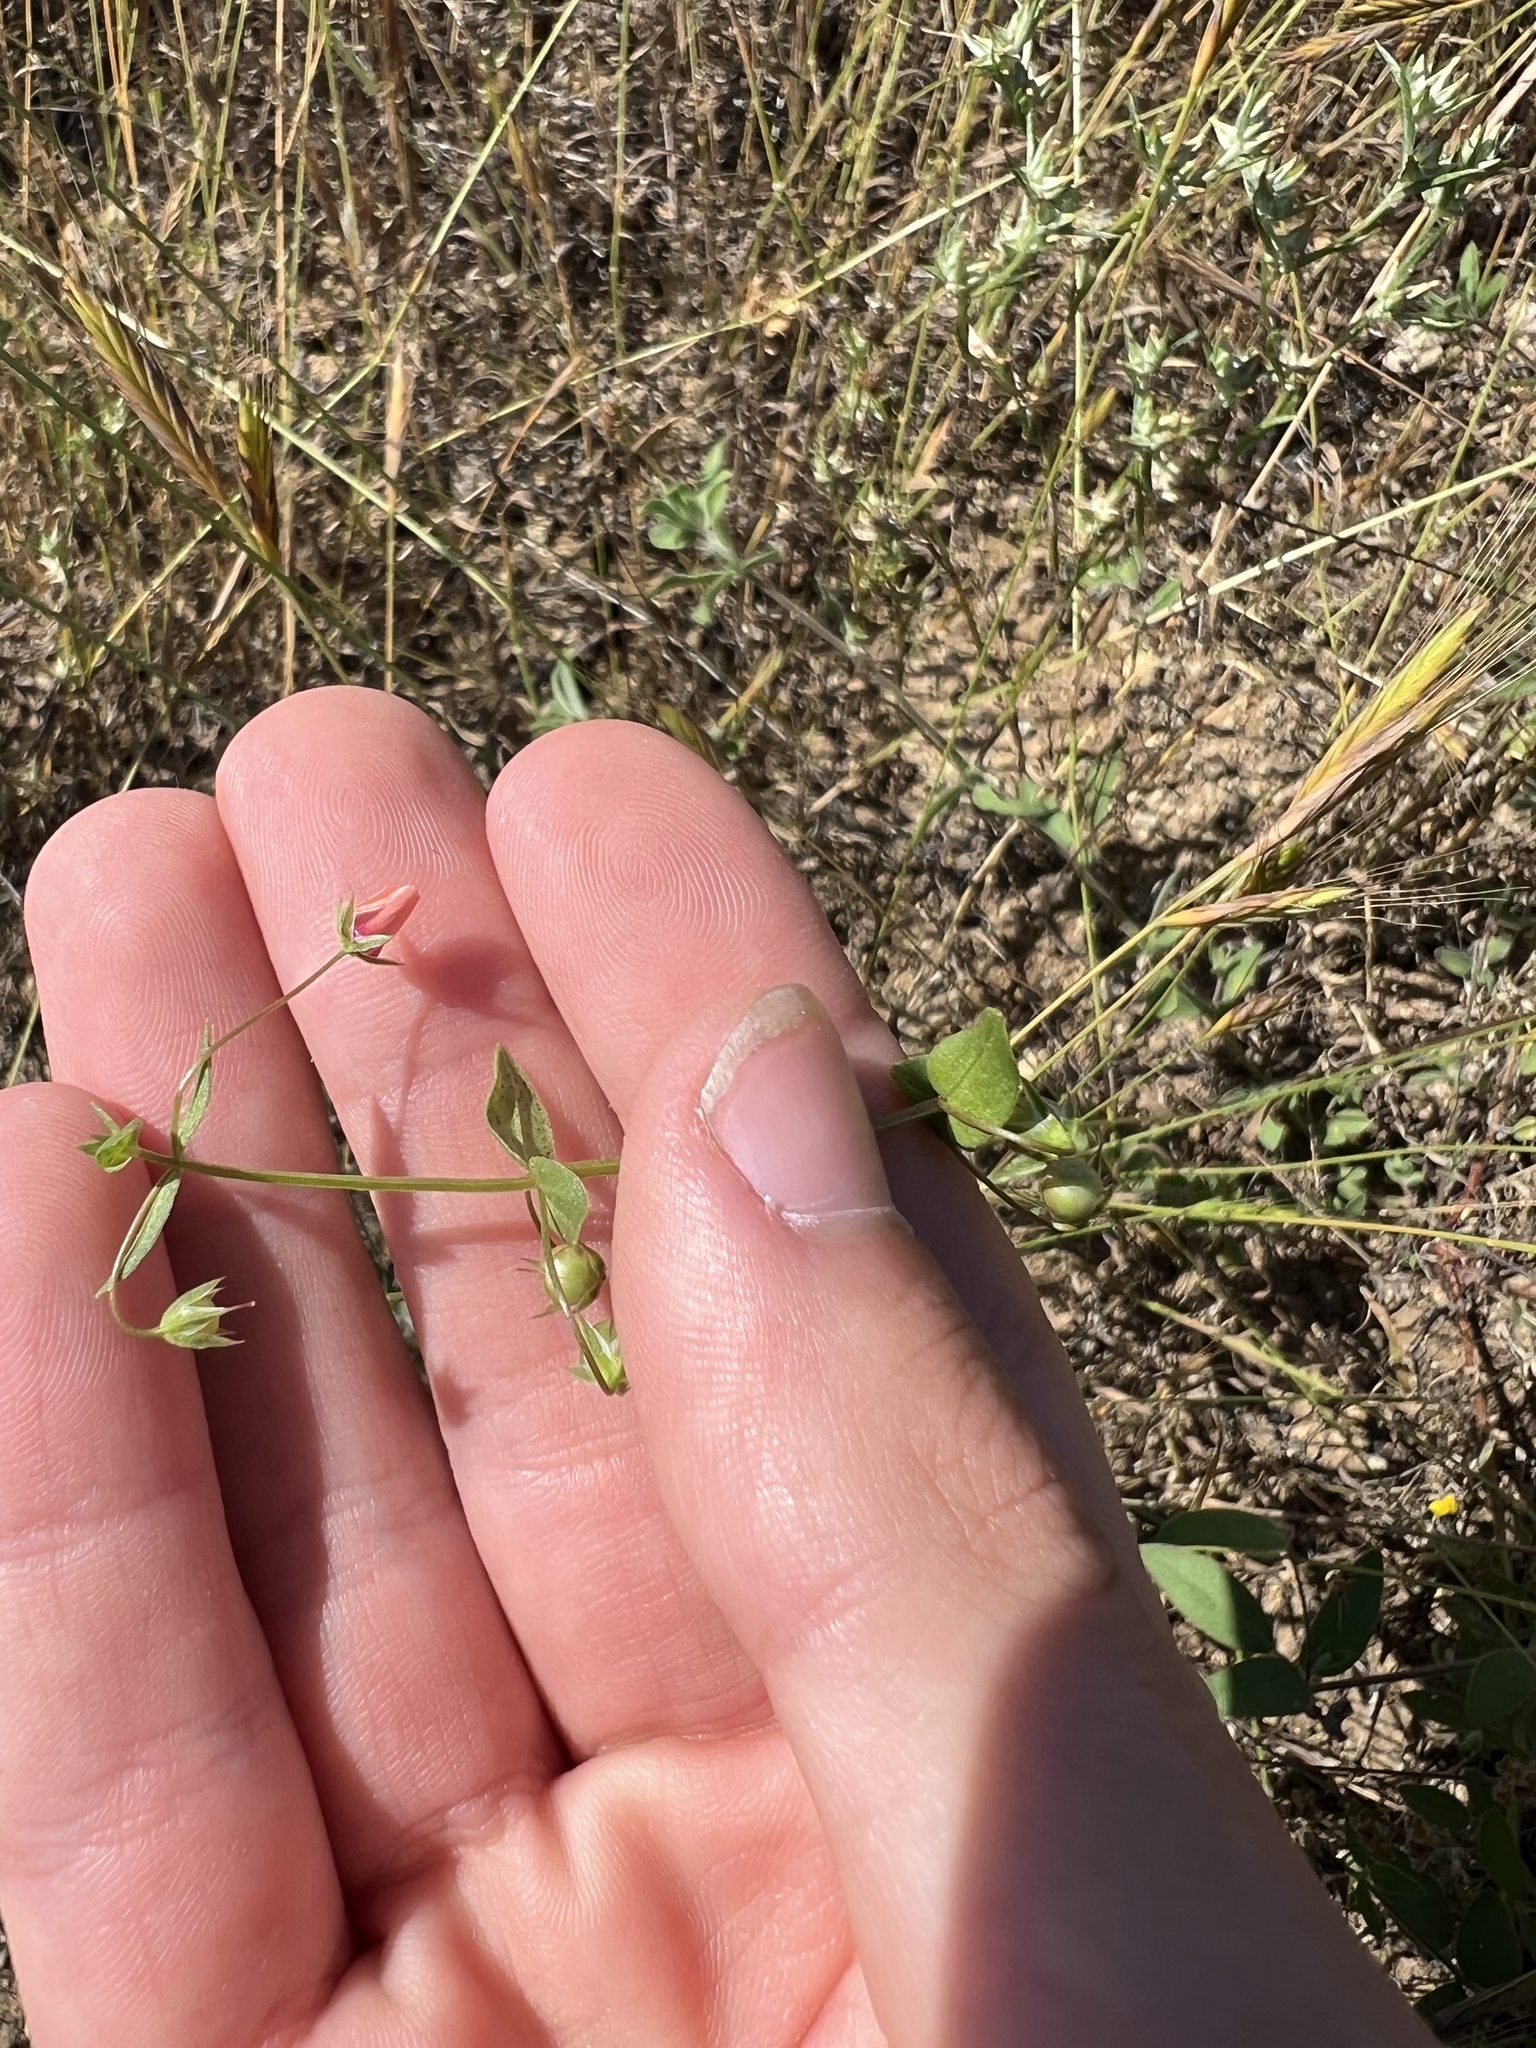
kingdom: Plantae
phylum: Tracheophyta
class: Magnoliopsida
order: Ericales
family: Primulaceae
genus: Lysimachia
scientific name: Lysimachia arvensis
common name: Scarlet pimpernel
